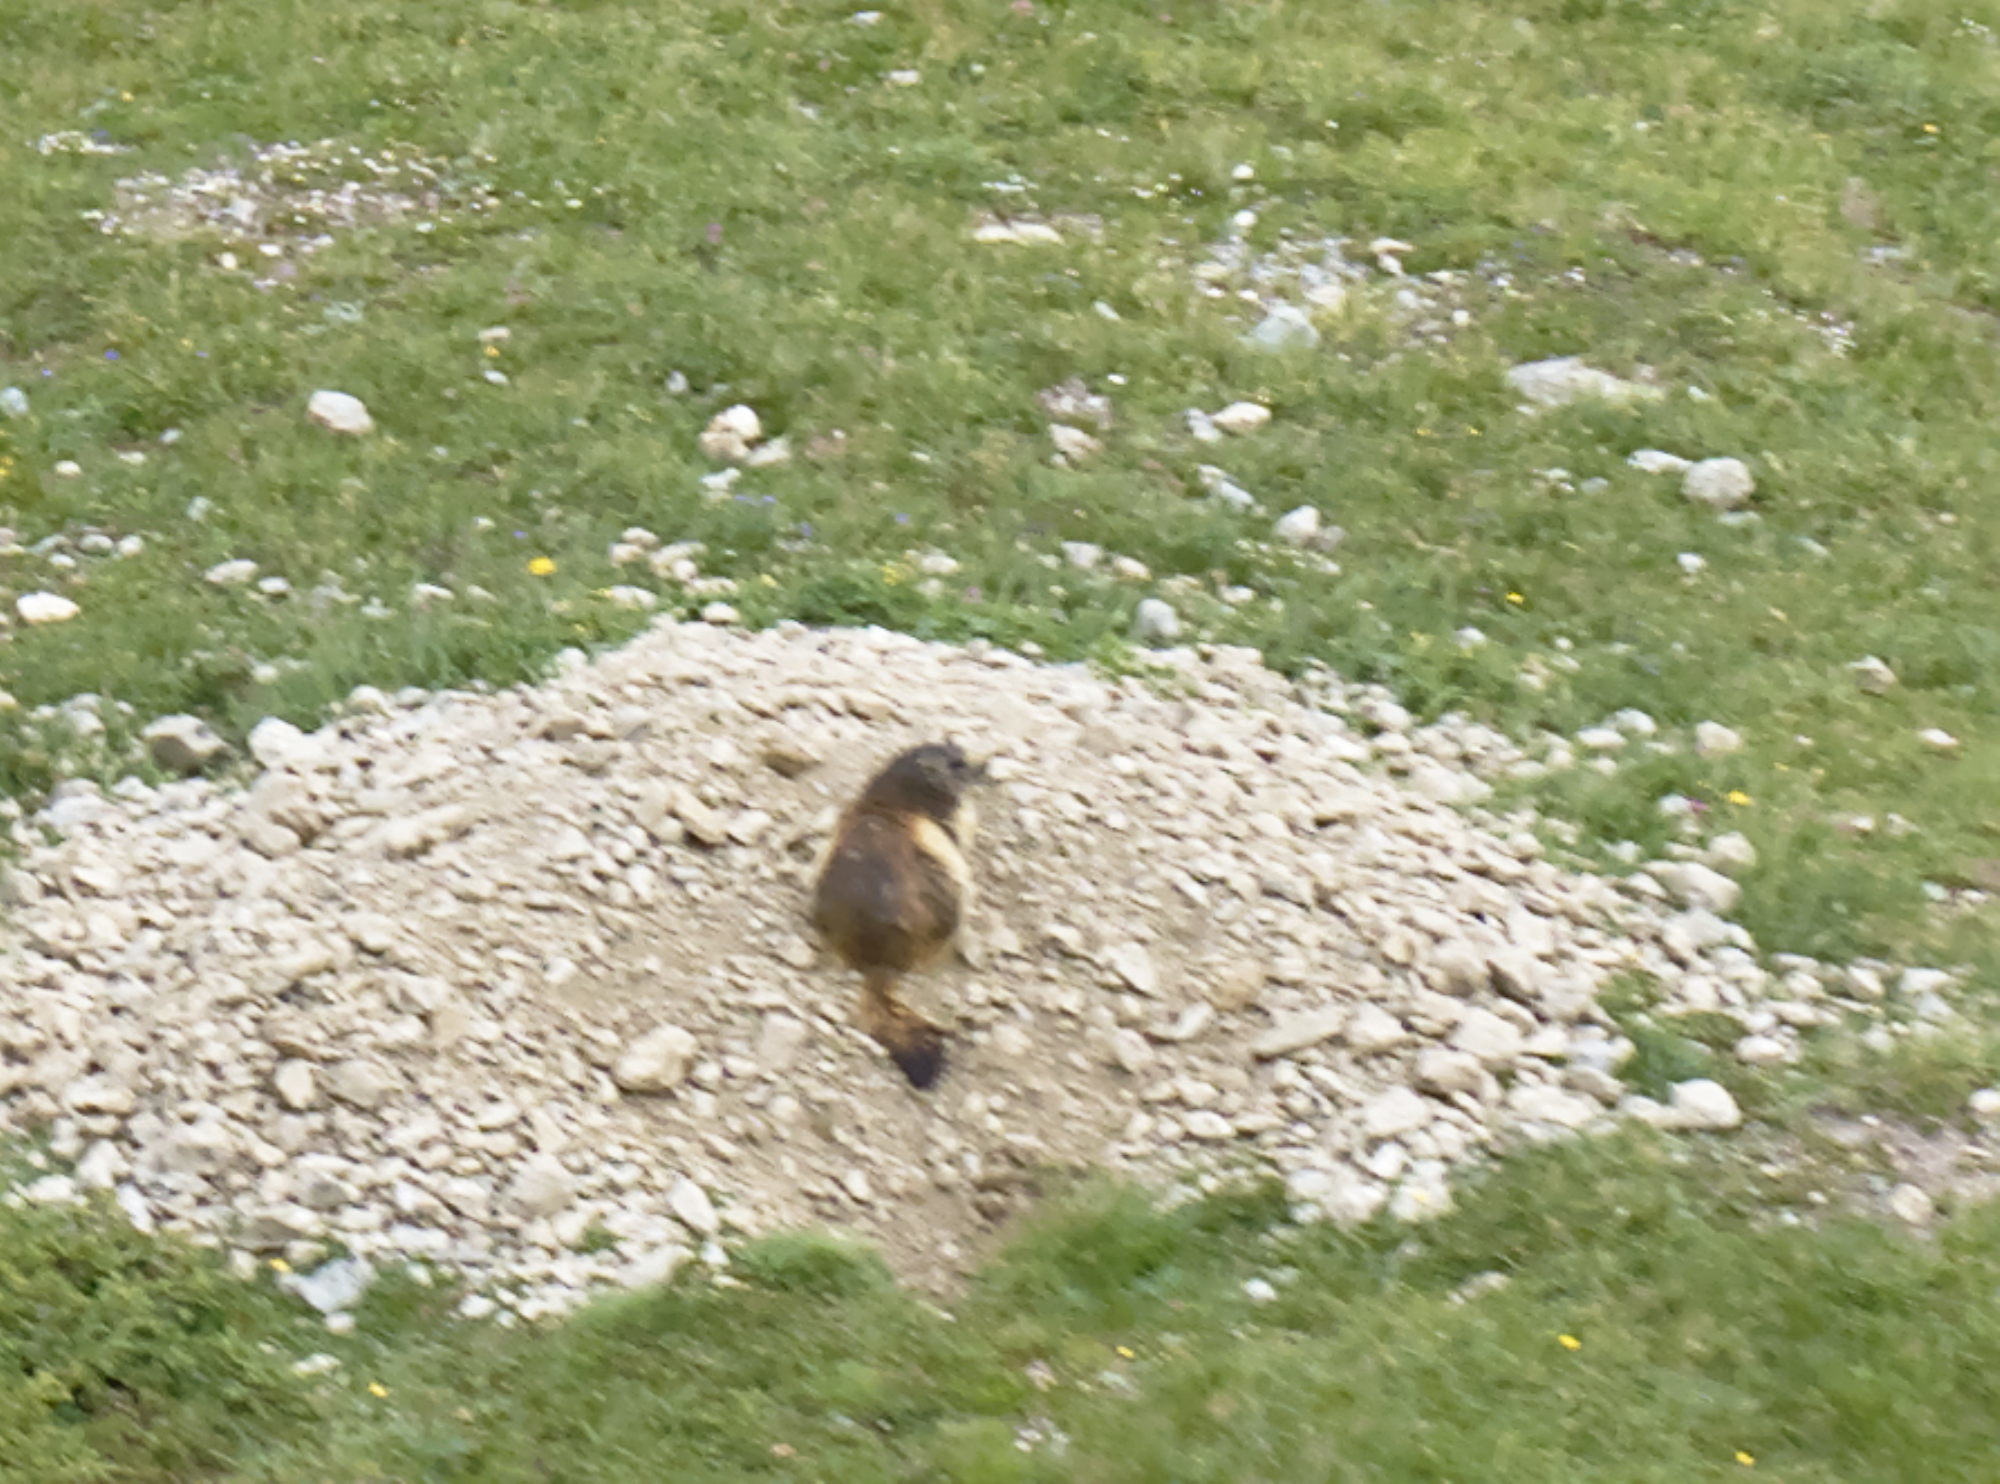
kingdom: Animalia
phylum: Chordata
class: Mammalia
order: Rodentia
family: Sciuridae
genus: Marmota
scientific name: Marmota marmota
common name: Alpine marmot
